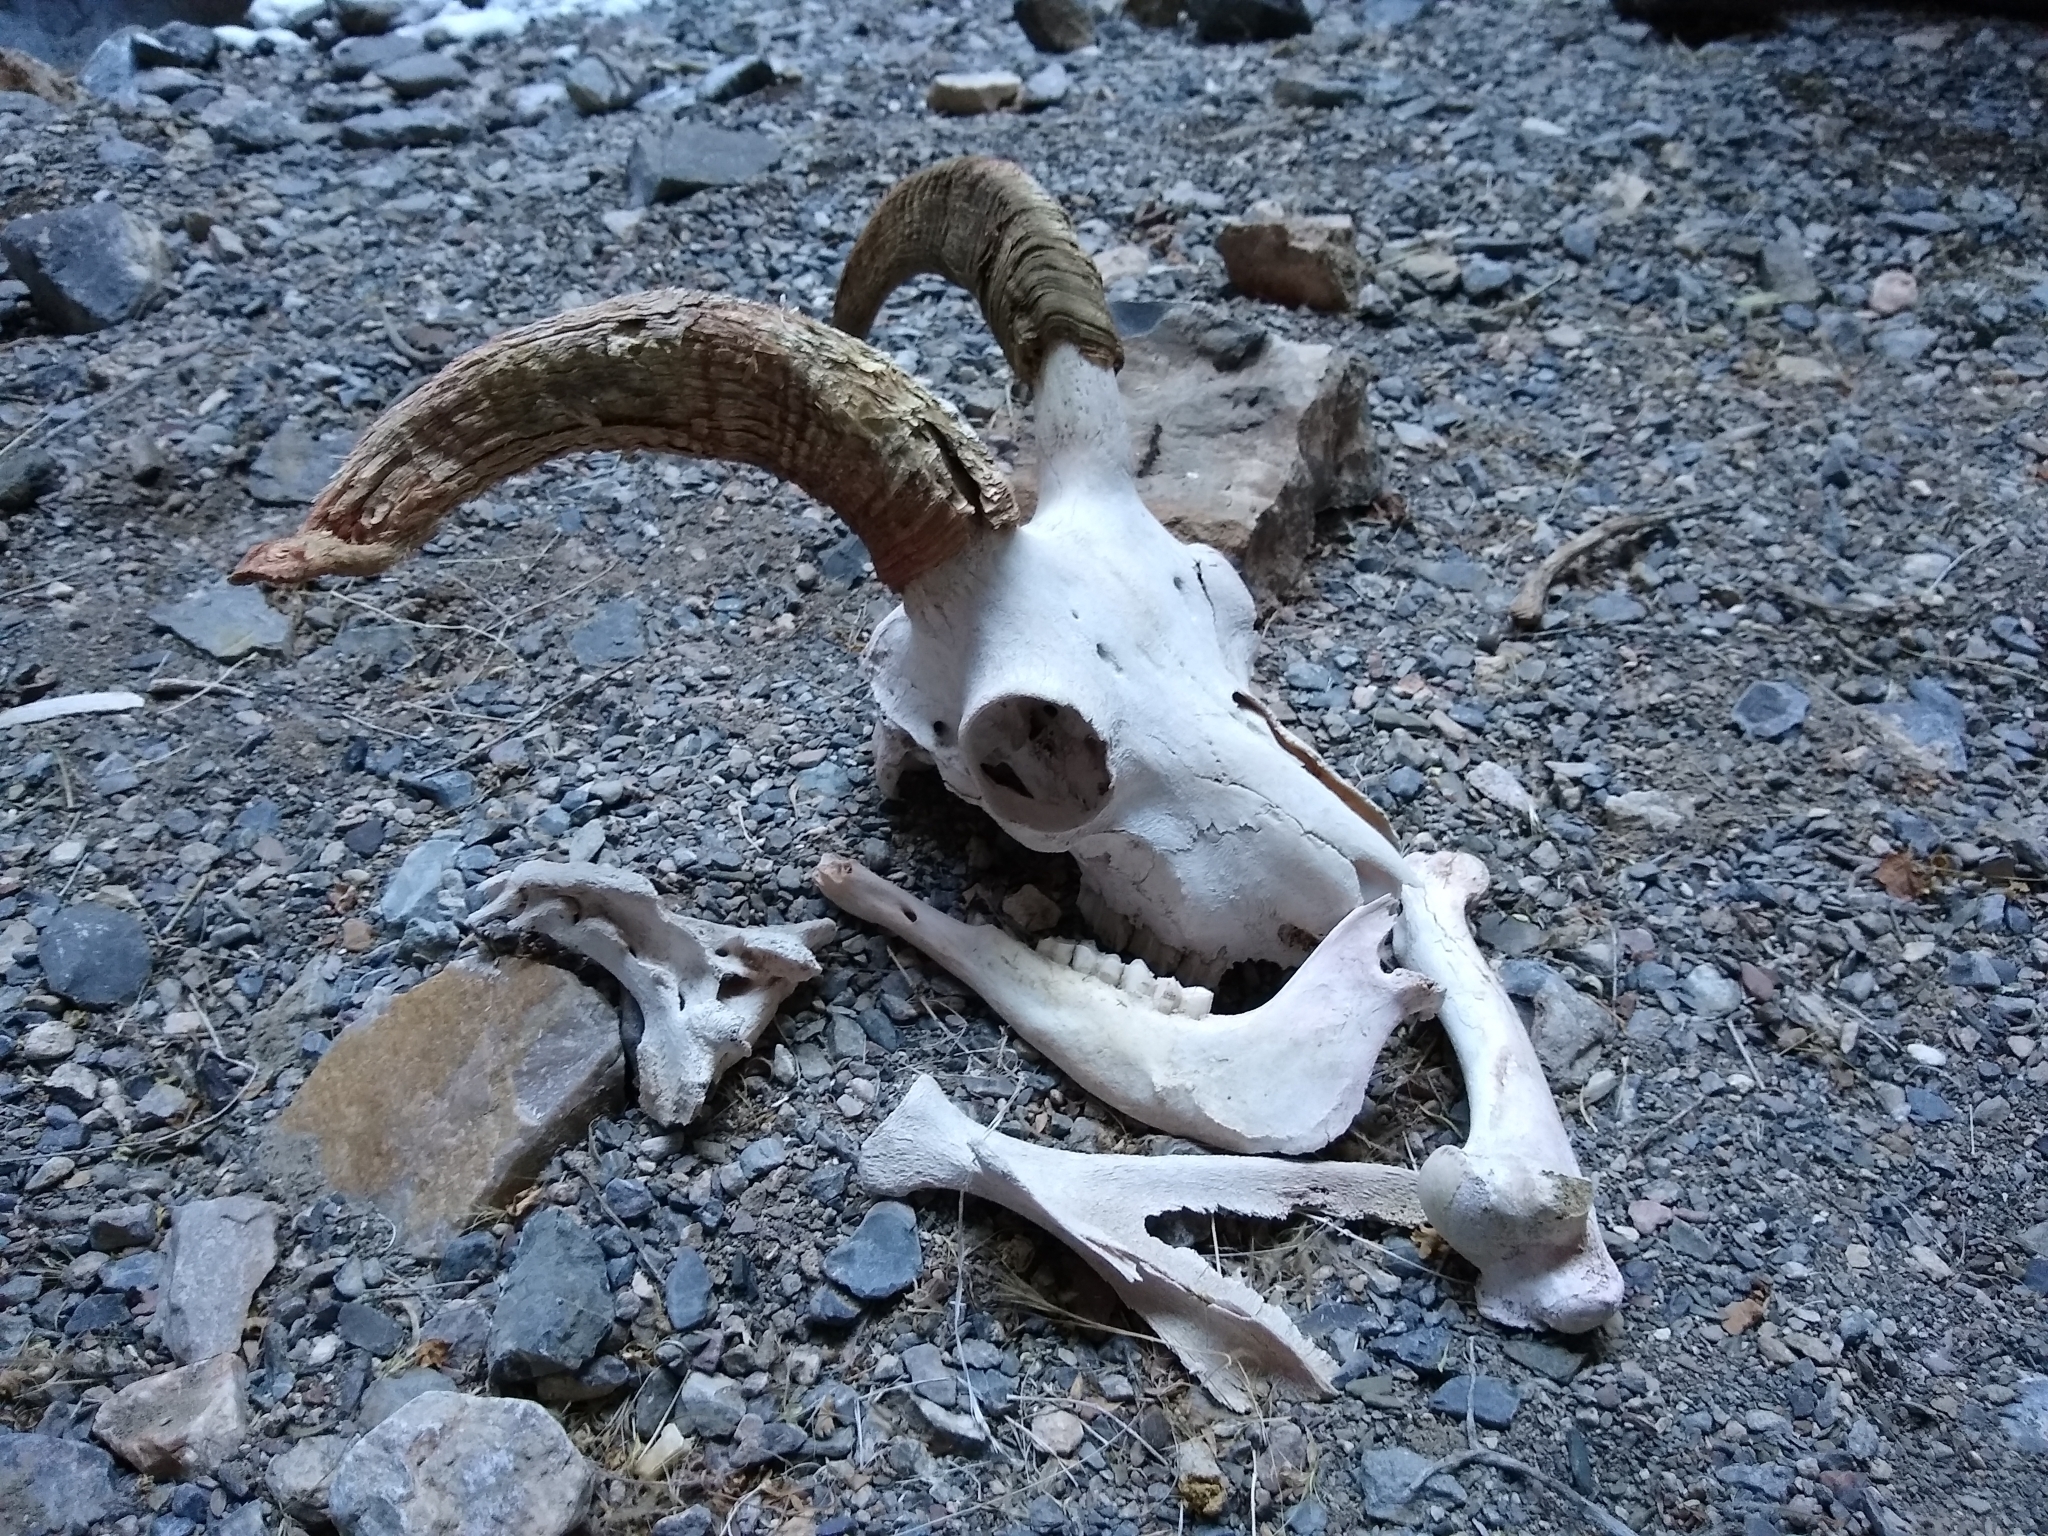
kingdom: Animalia
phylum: Chordata
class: Mammalia
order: Artiodactyla
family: Bovidae
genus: Ovis
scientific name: Ovis canadensis
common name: Bighorn sheep
